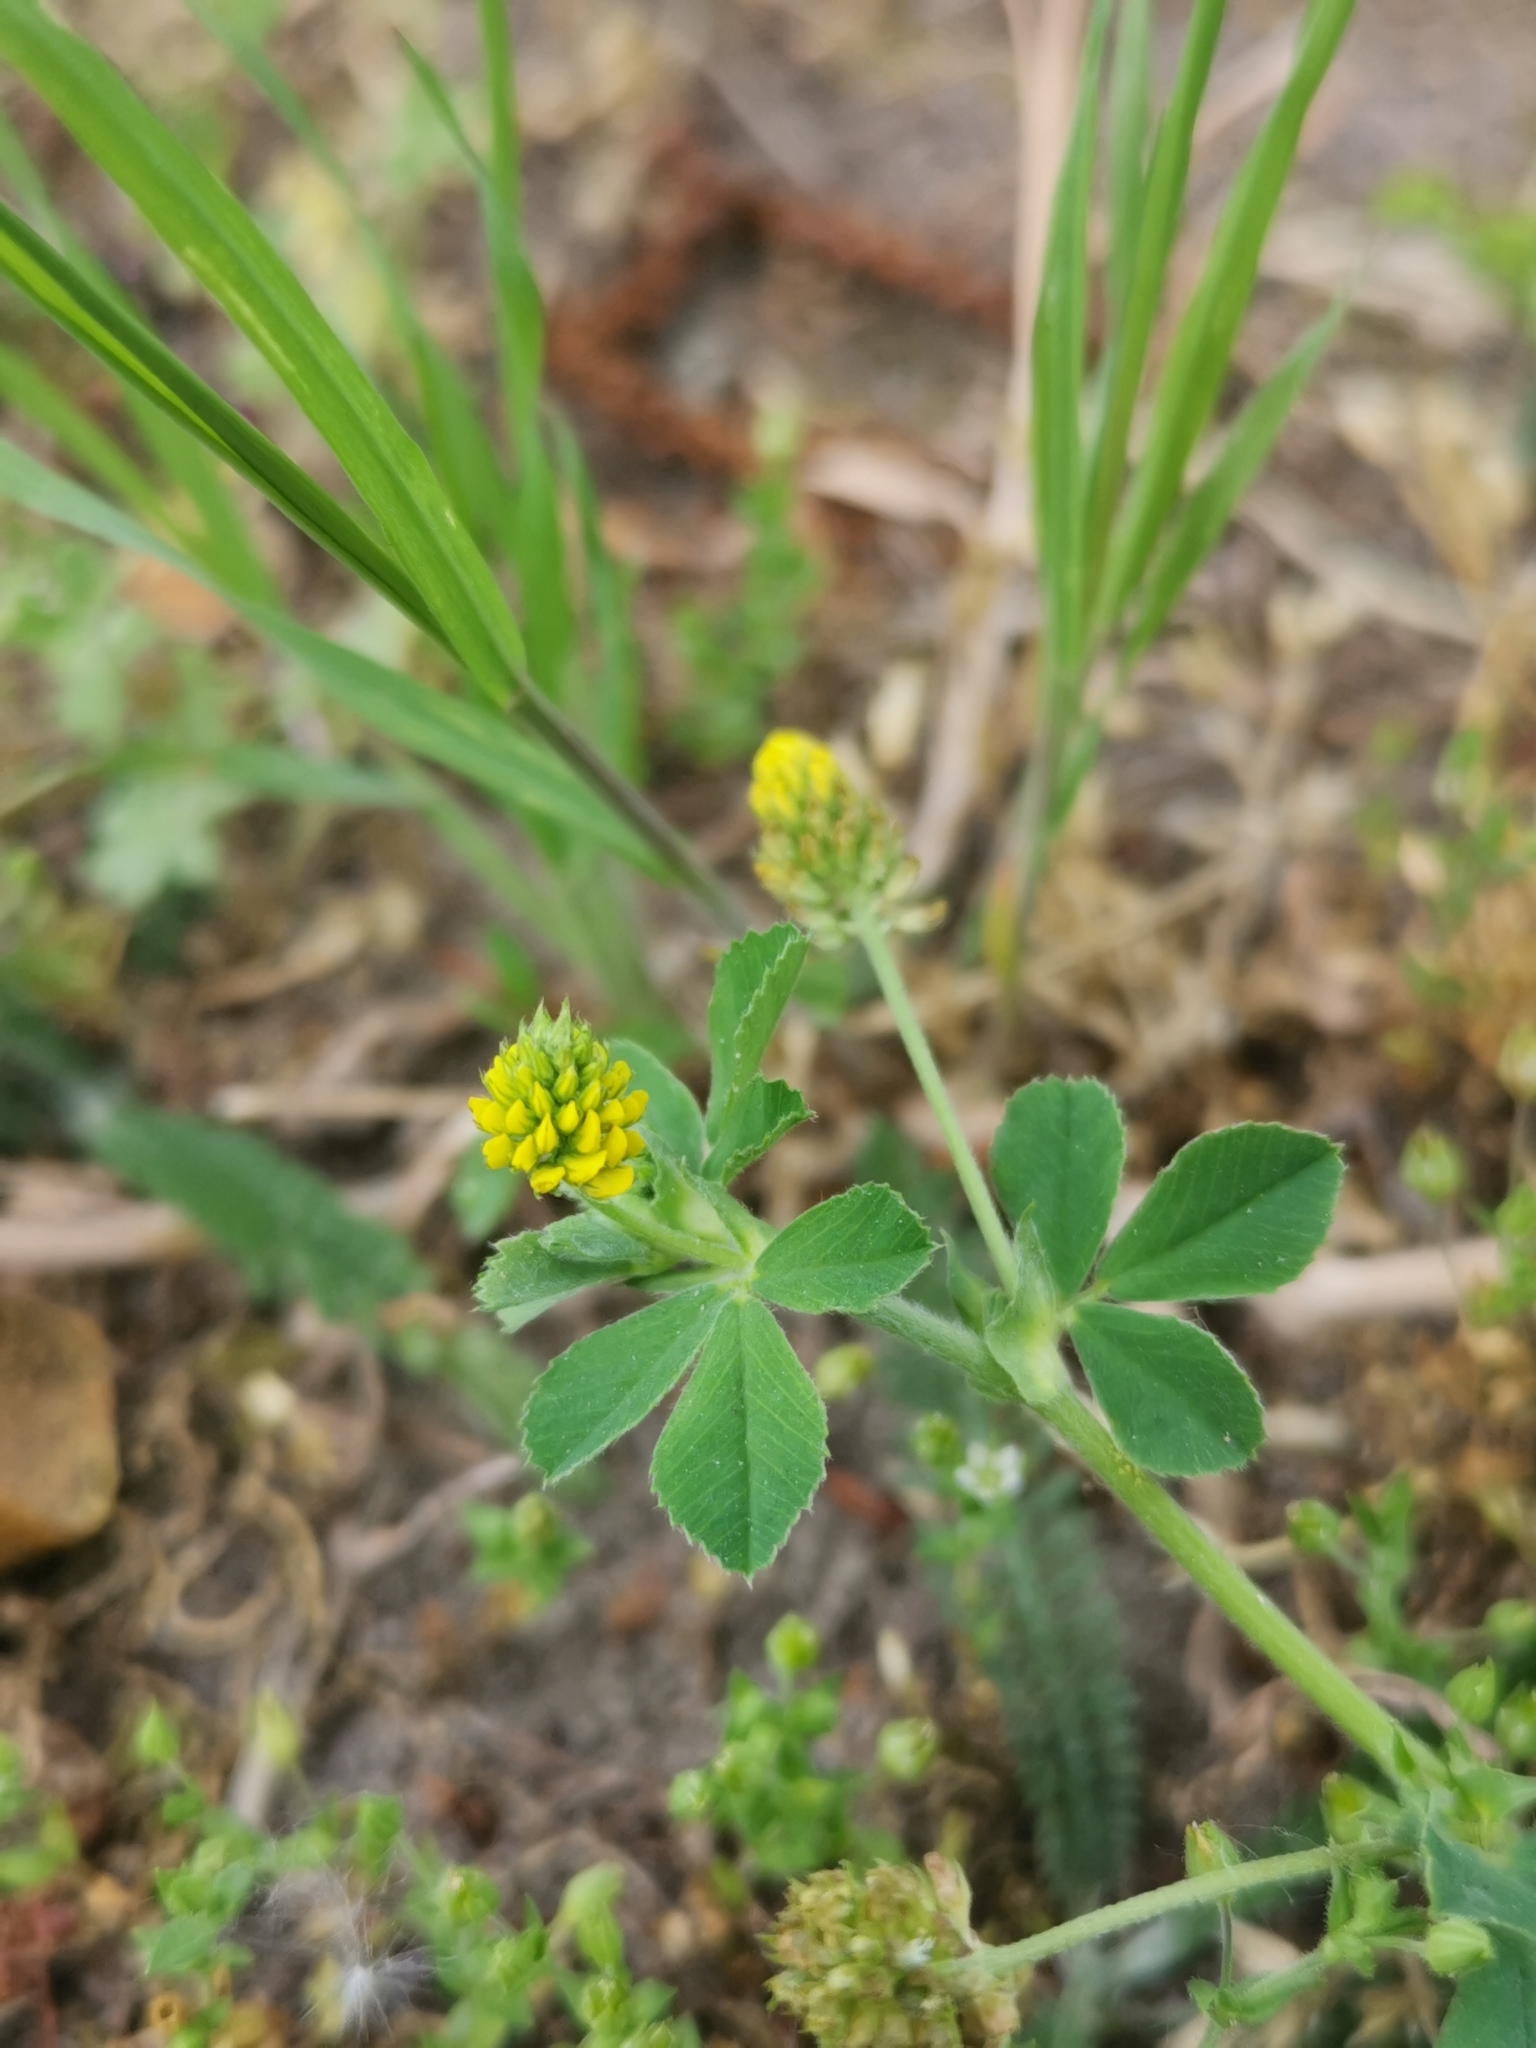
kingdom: Plantae
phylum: Tracheophyta
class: Magnoliopsida
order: Fabales
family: Fabaceae
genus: Medicago
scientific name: Medicago lupulina
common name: Black medick
